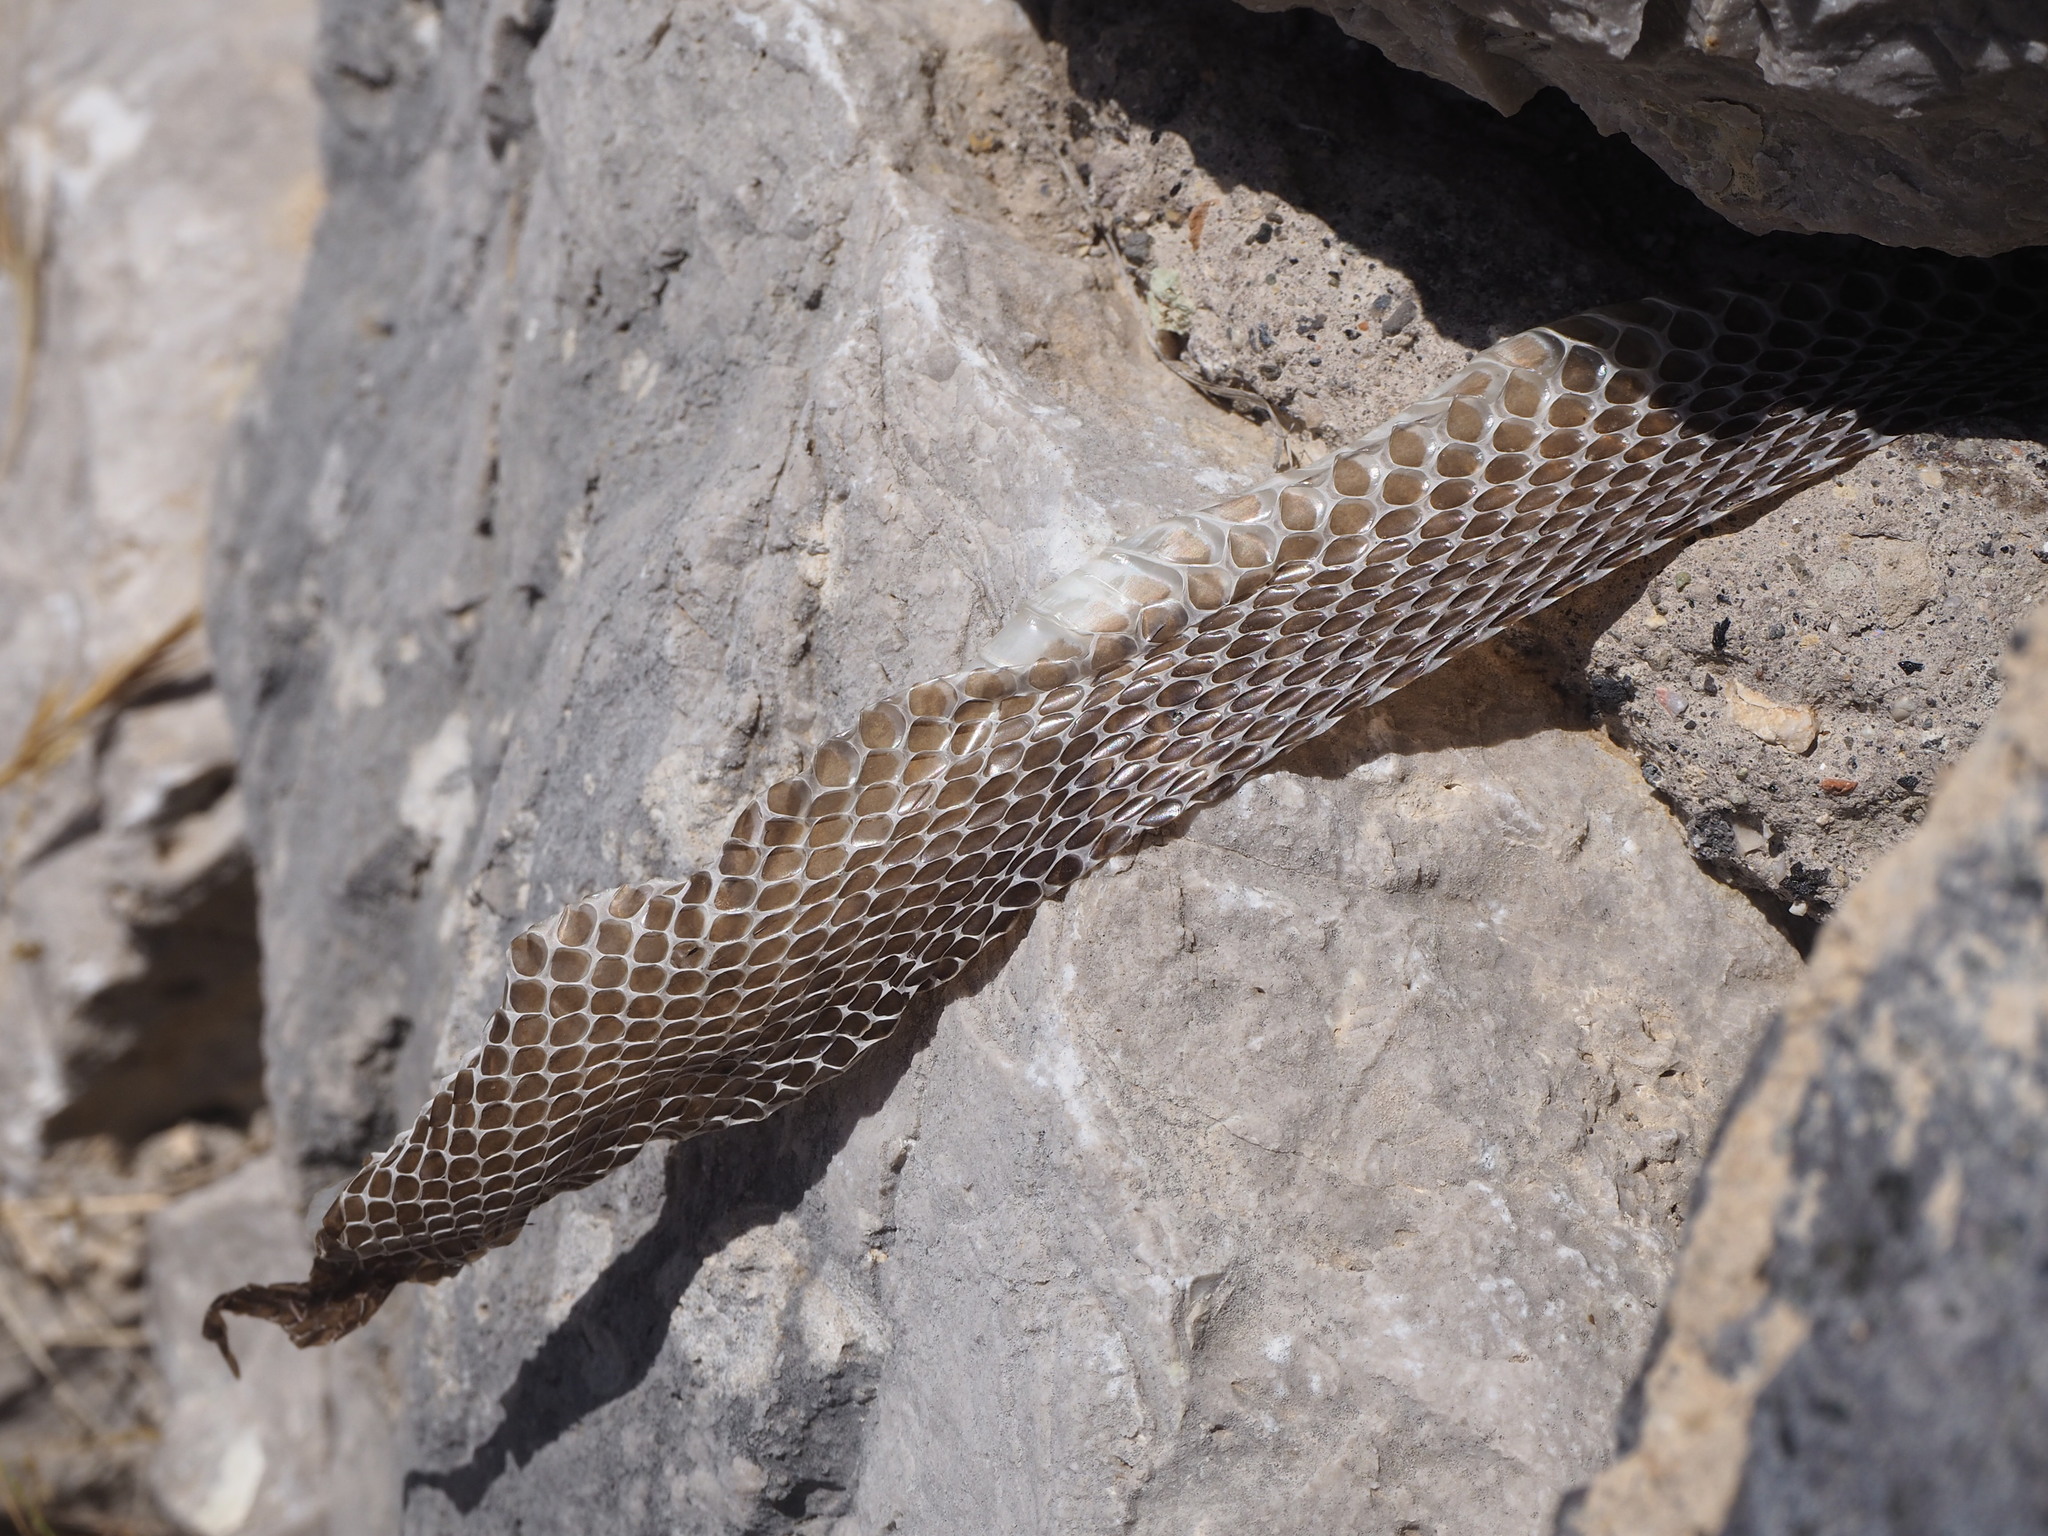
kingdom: Animalia
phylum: Chordata
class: Squamata
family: Colubridae
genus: Hierophis
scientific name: Hierophis viridiflavus
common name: Green whip snake
